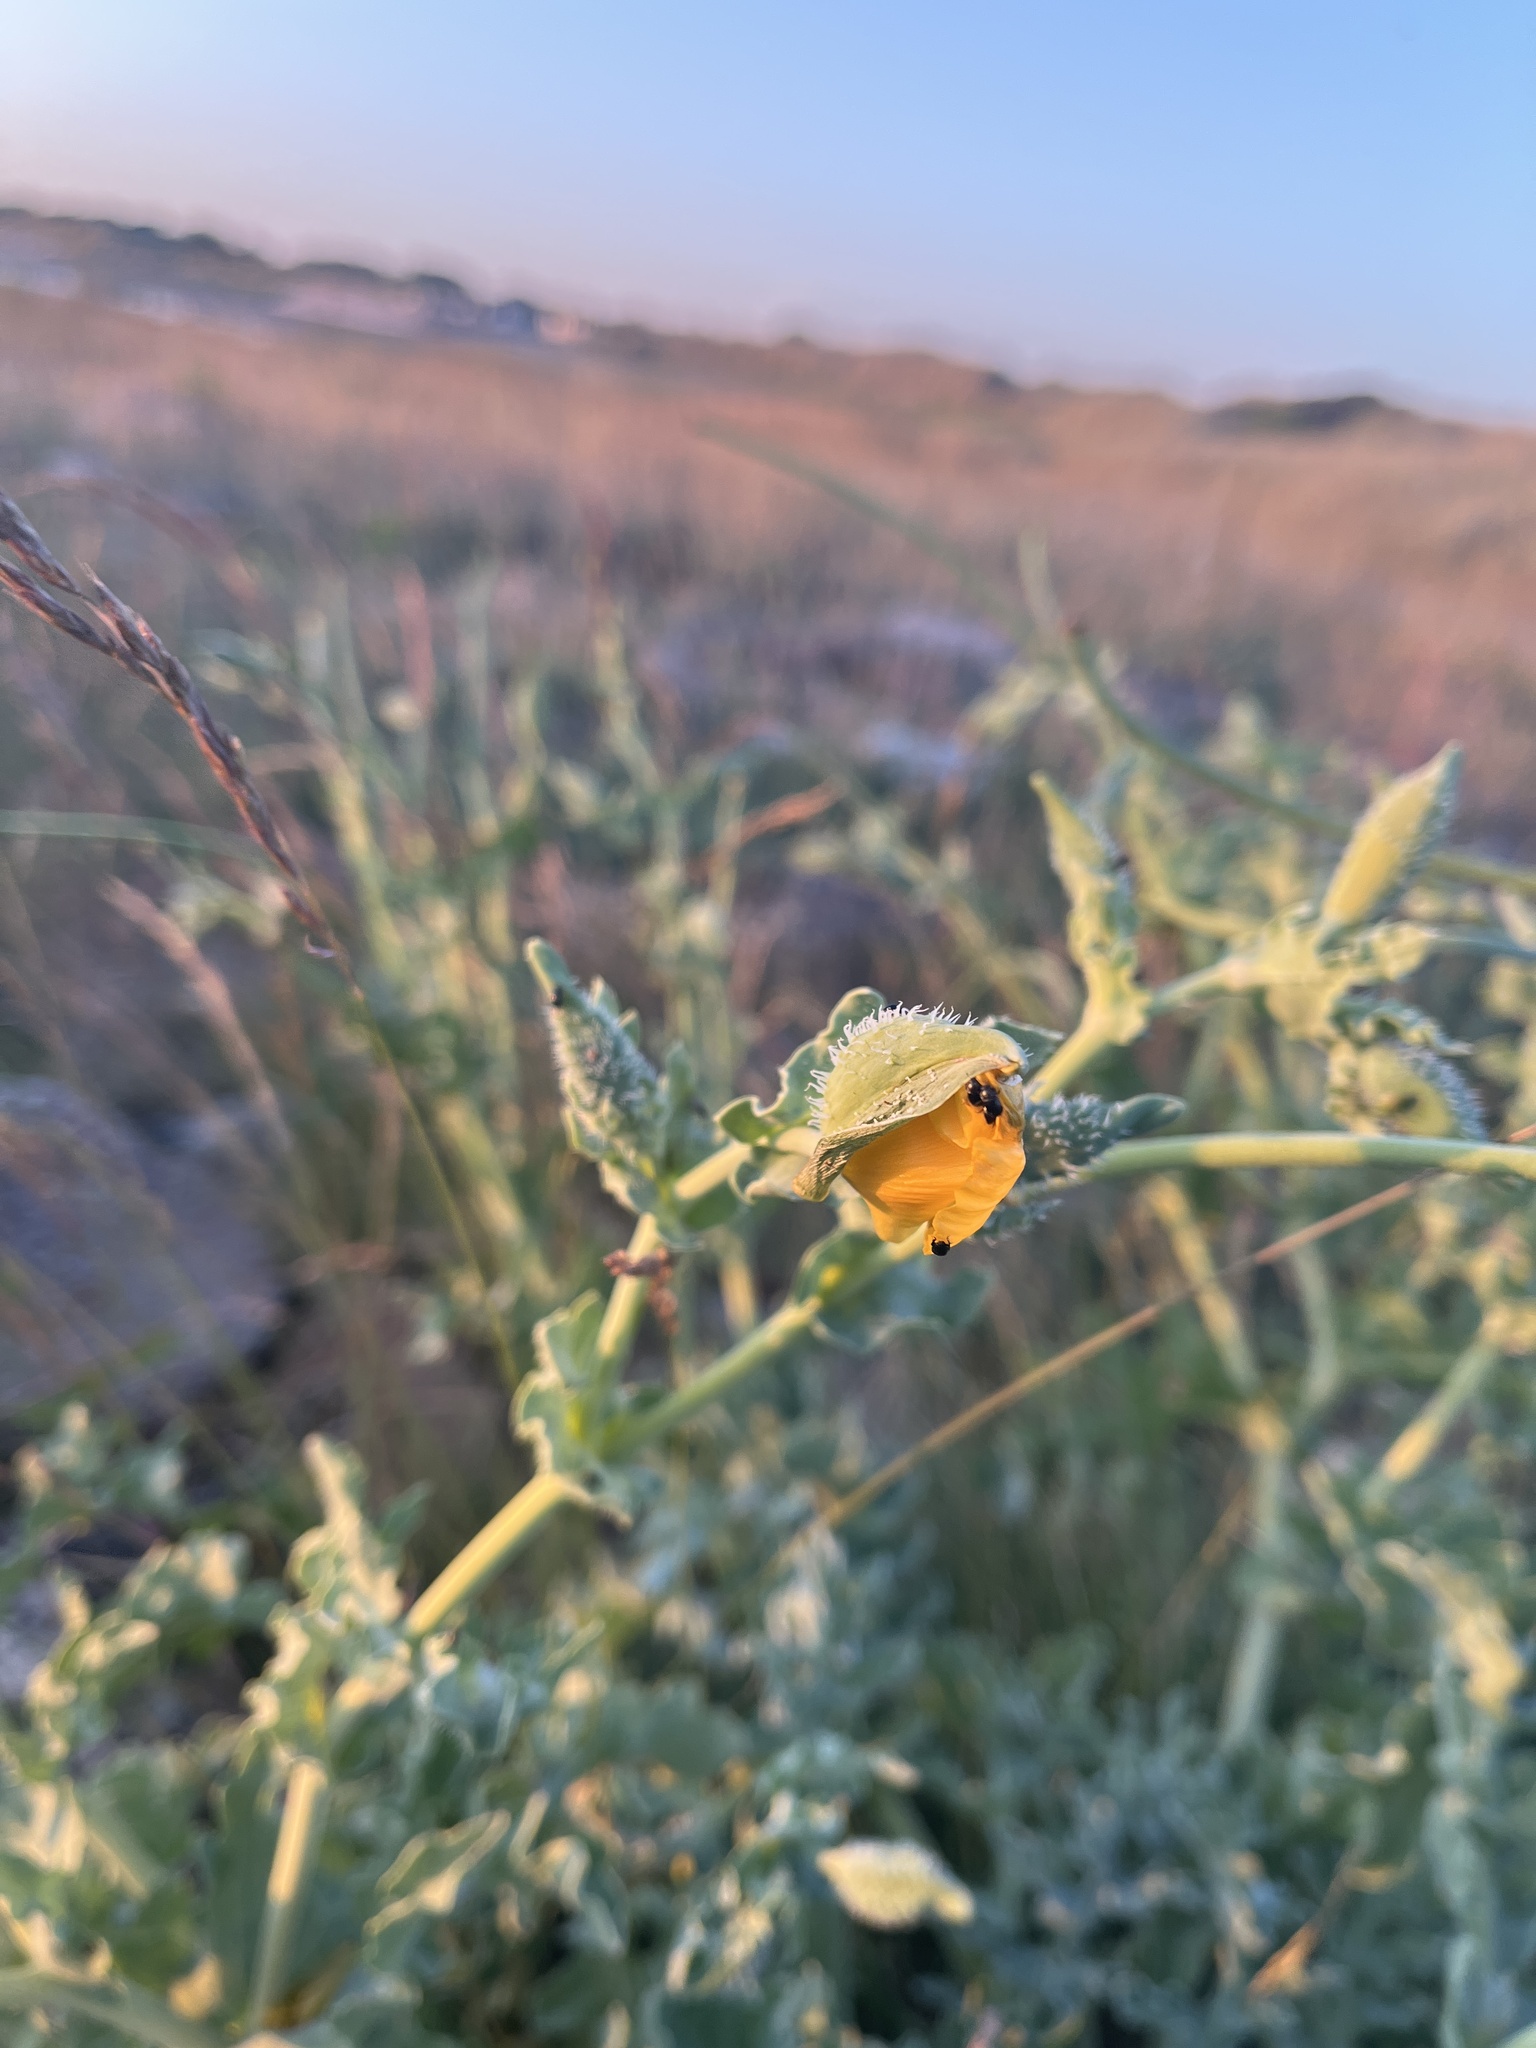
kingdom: Plantae
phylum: Tracheophyta
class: Magnoliopsida
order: Ranunculales
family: Papaveraceae
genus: Glaucium
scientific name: Glaucium flavum
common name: Yellow horned-poppy
